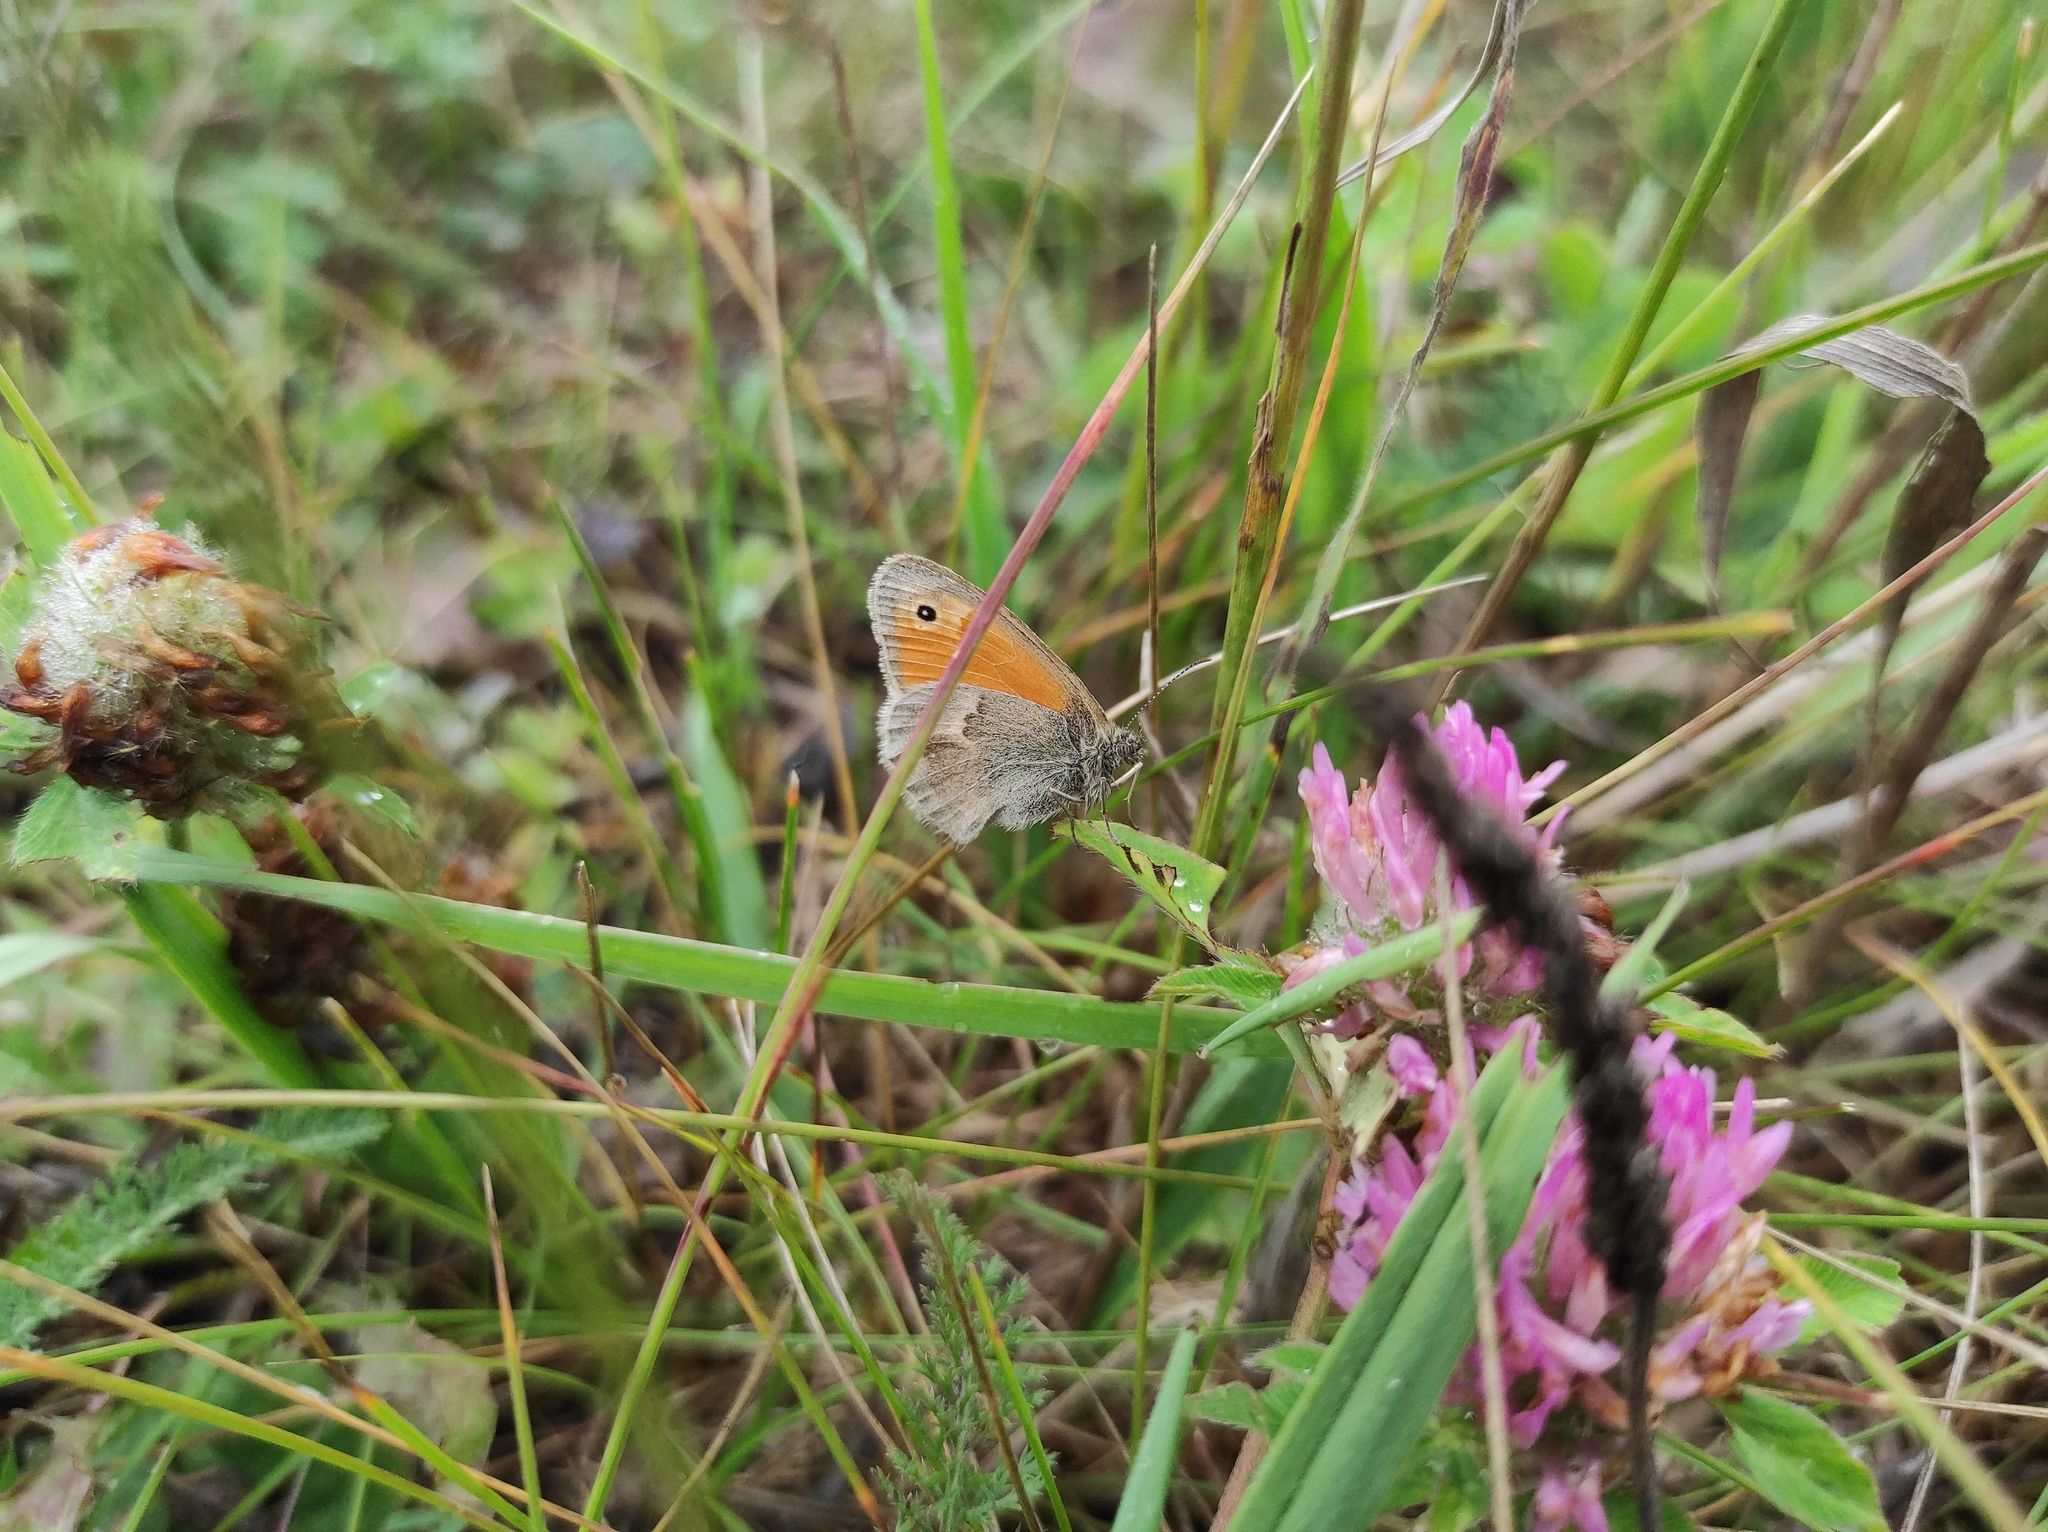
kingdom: Animalia
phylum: Arthropoda
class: Insecta
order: Lepidoptera
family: Nymphalidae
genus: Coenonympha
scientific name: Coenonympha pamphilus
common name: Small heath
